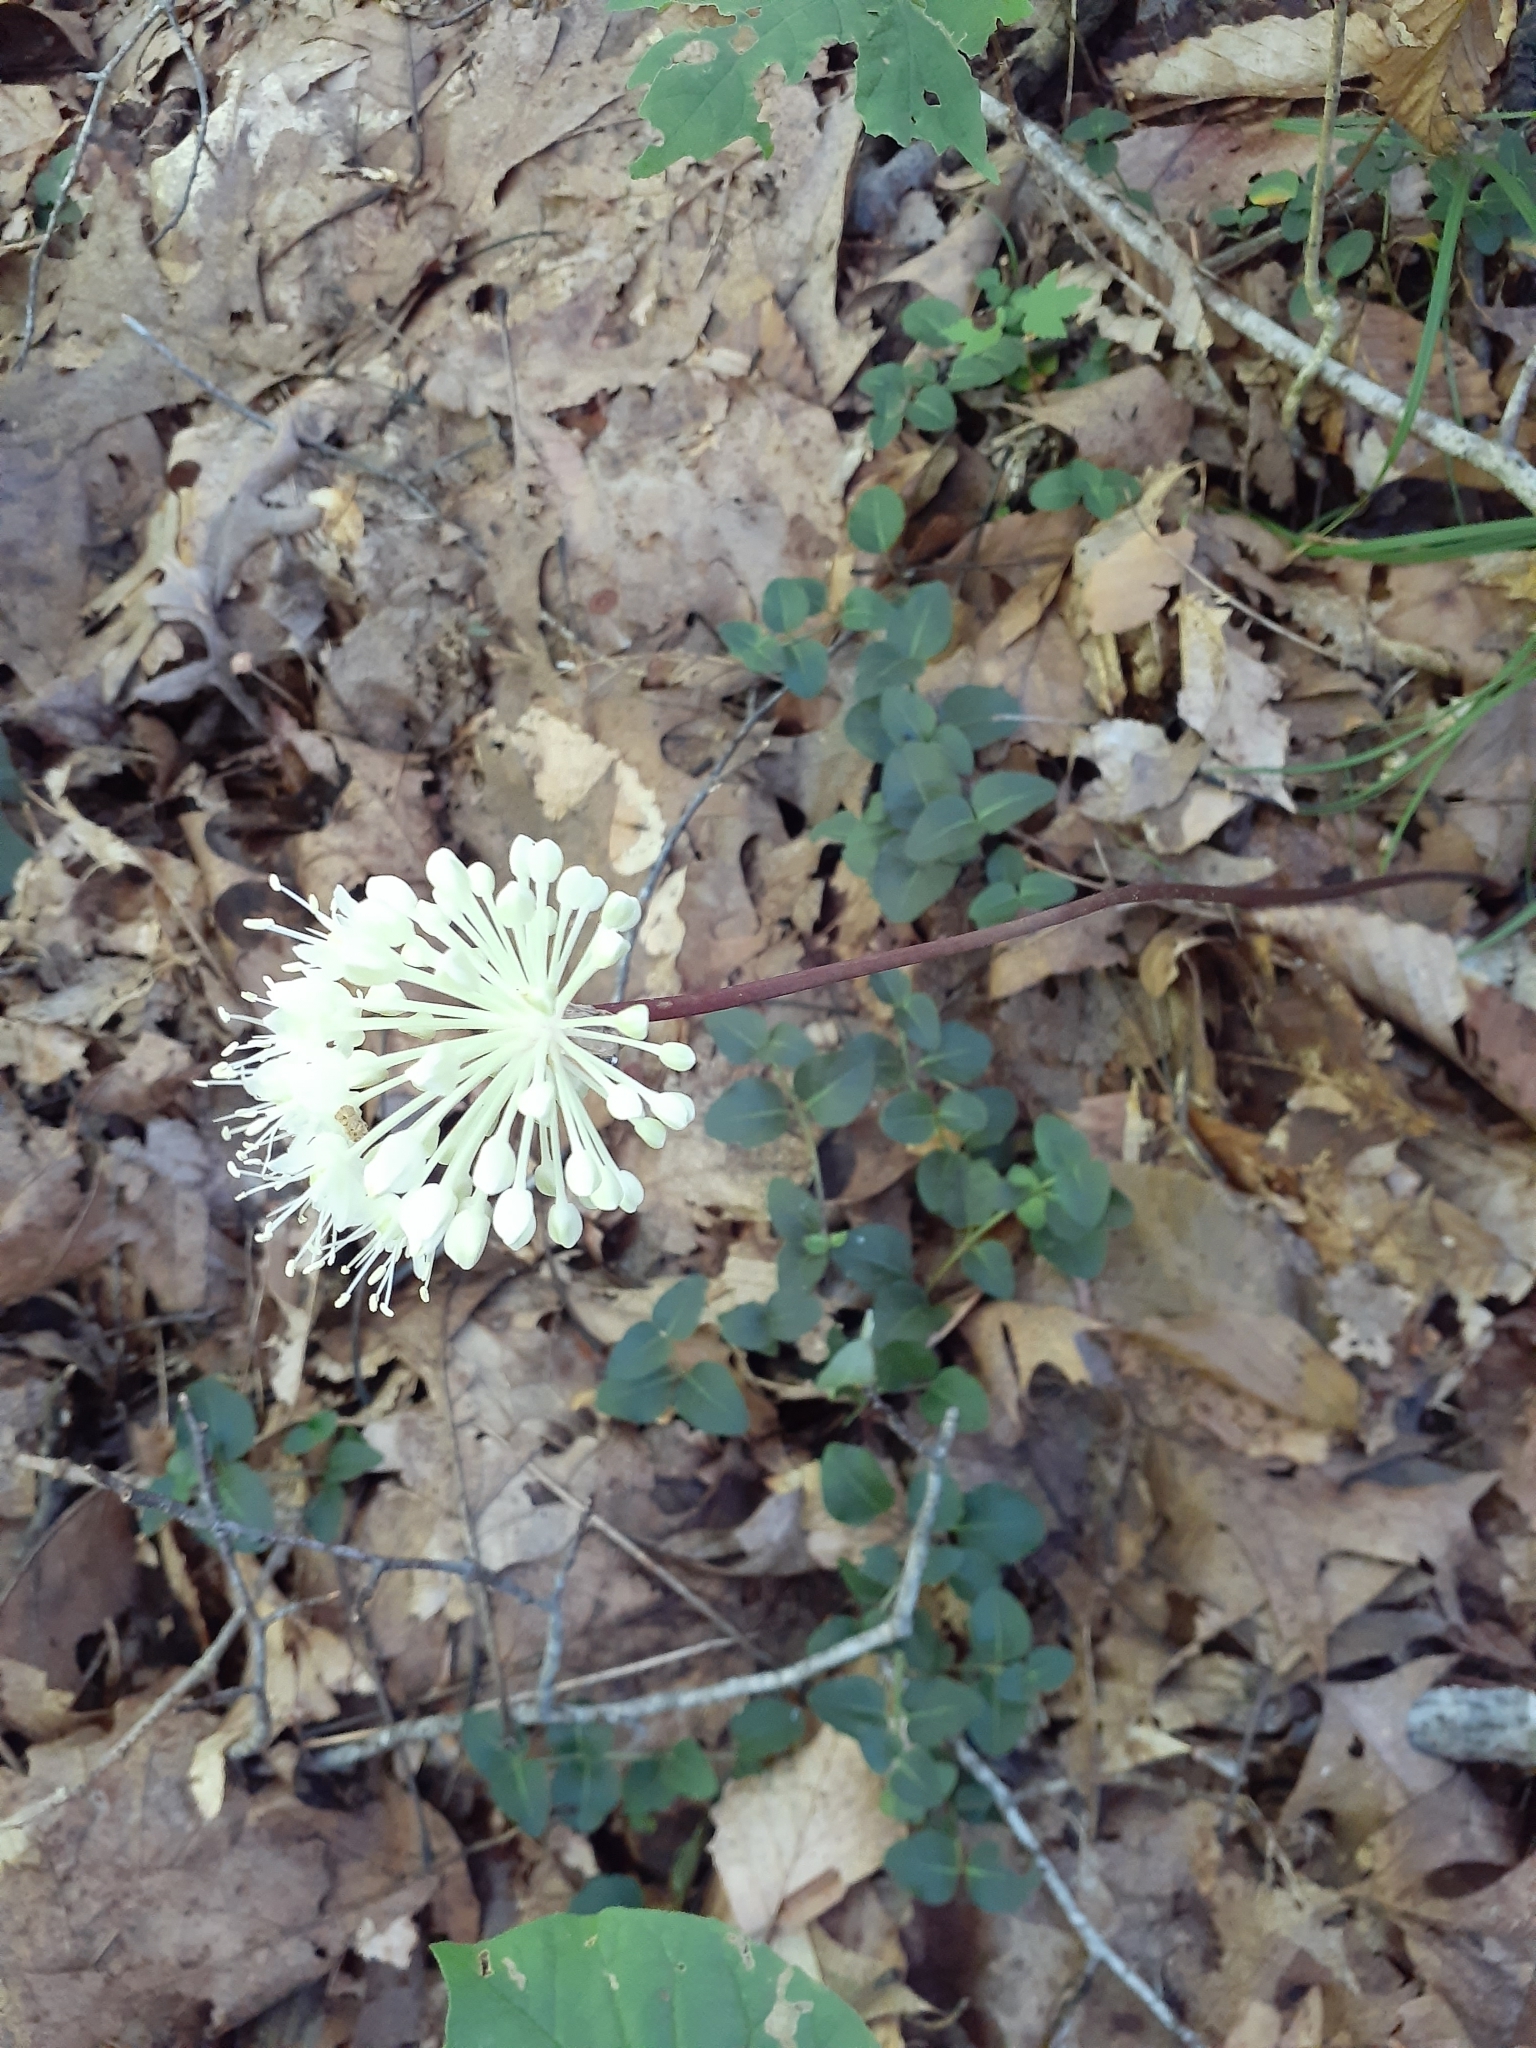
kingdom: Plantae
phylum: Tracheophyta
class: Liliopsida
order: Asparagales
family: Amaryllidaceae
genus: Allium
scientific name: Allium tricoccum
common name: Ramp
